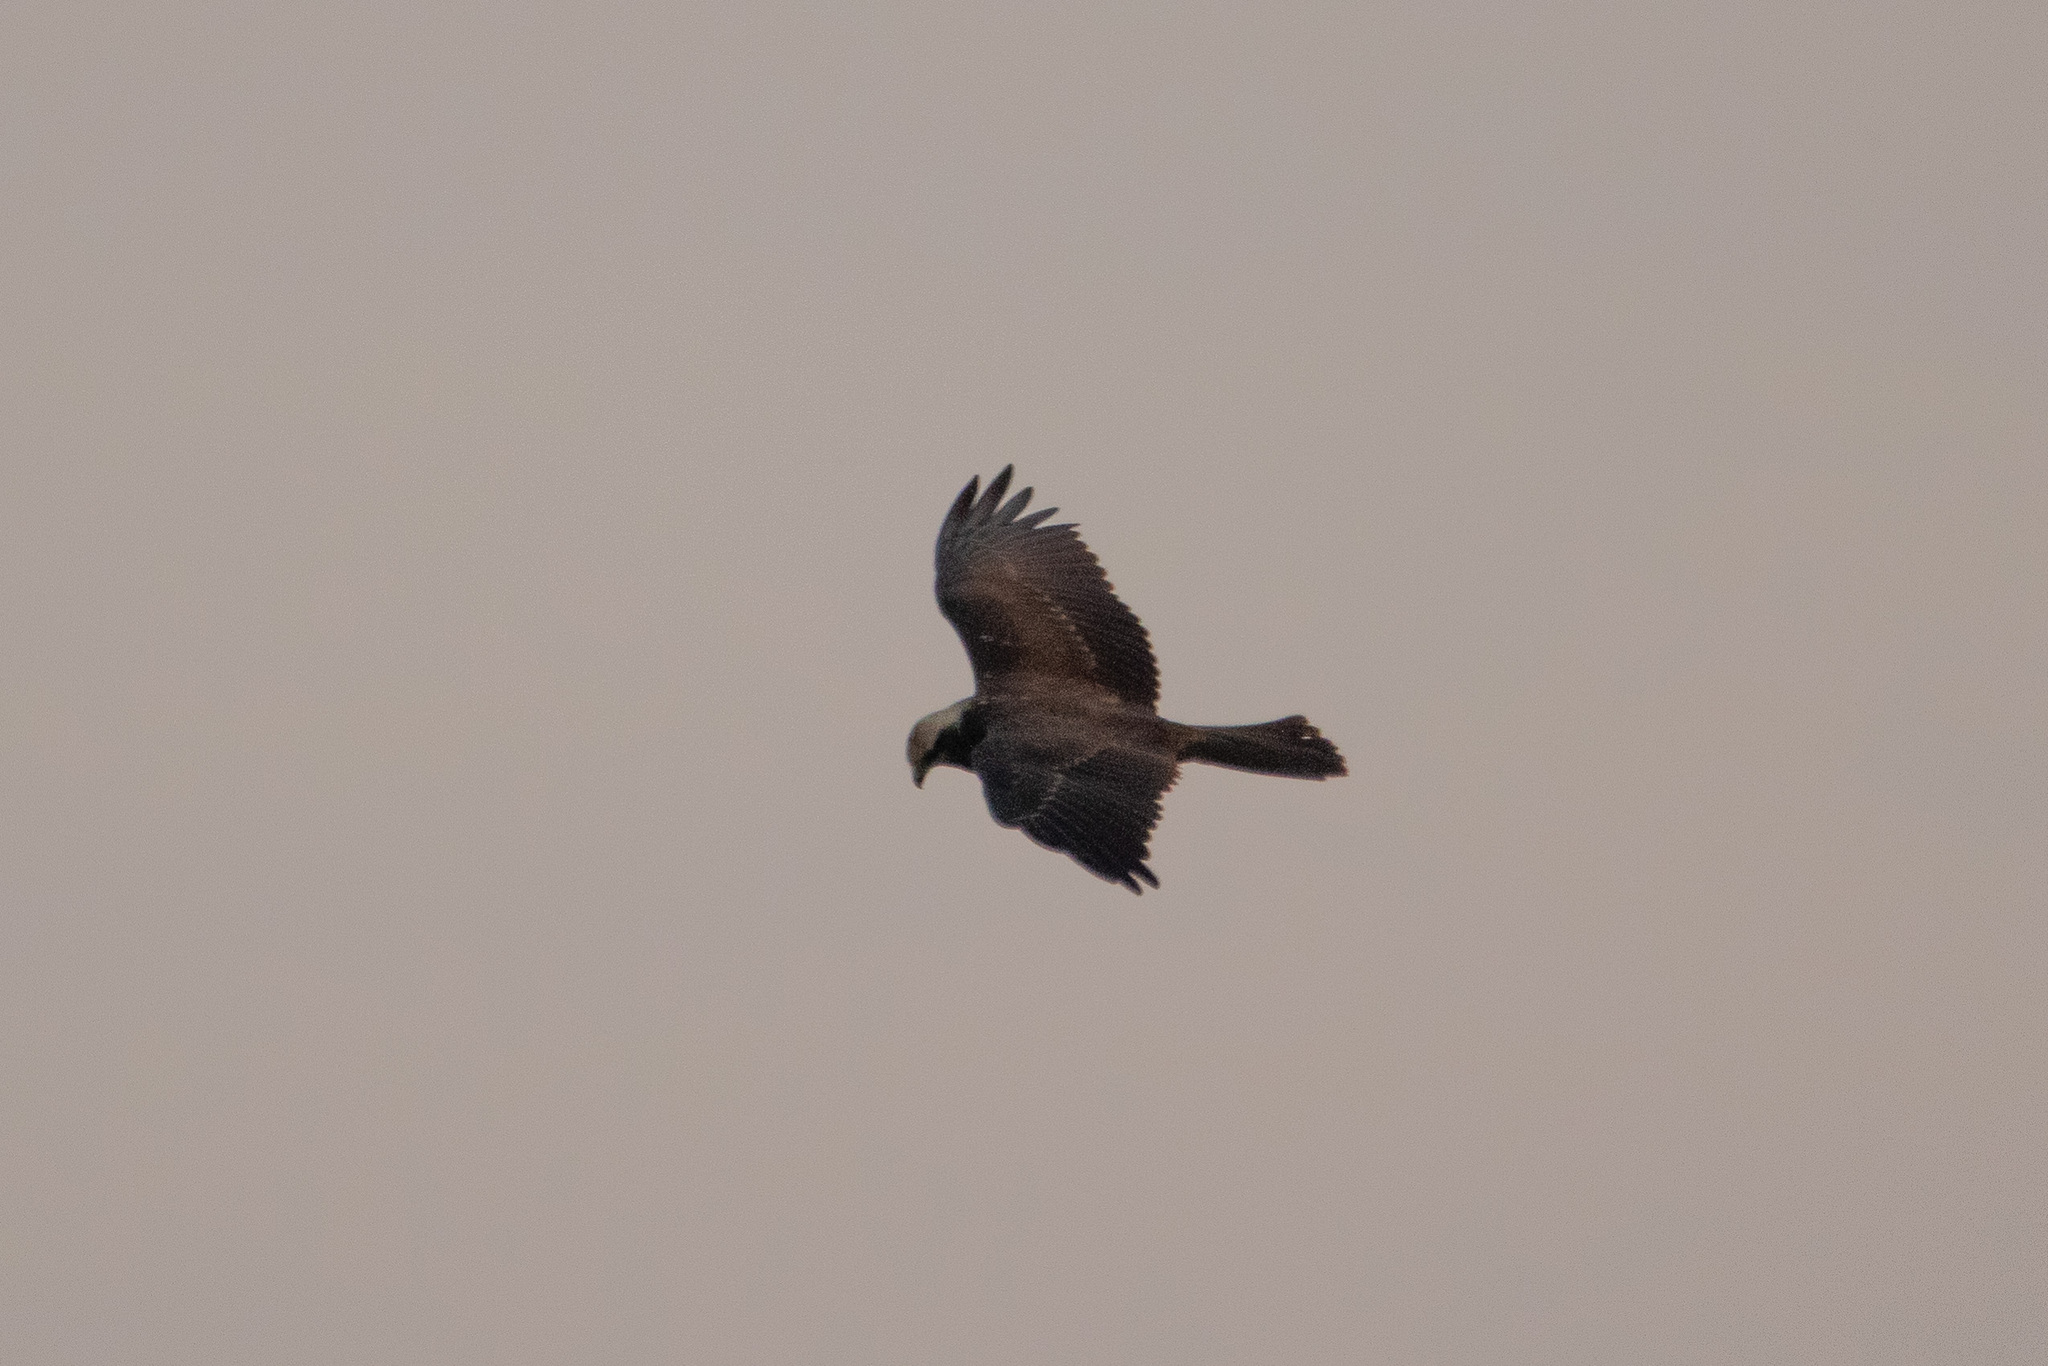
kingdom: Animalia
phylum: Chordata
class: Aves
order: Accipitriformes
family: Accipitridae
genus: Circus
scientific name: Circus aeruginosus
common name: Western marsh harrier
